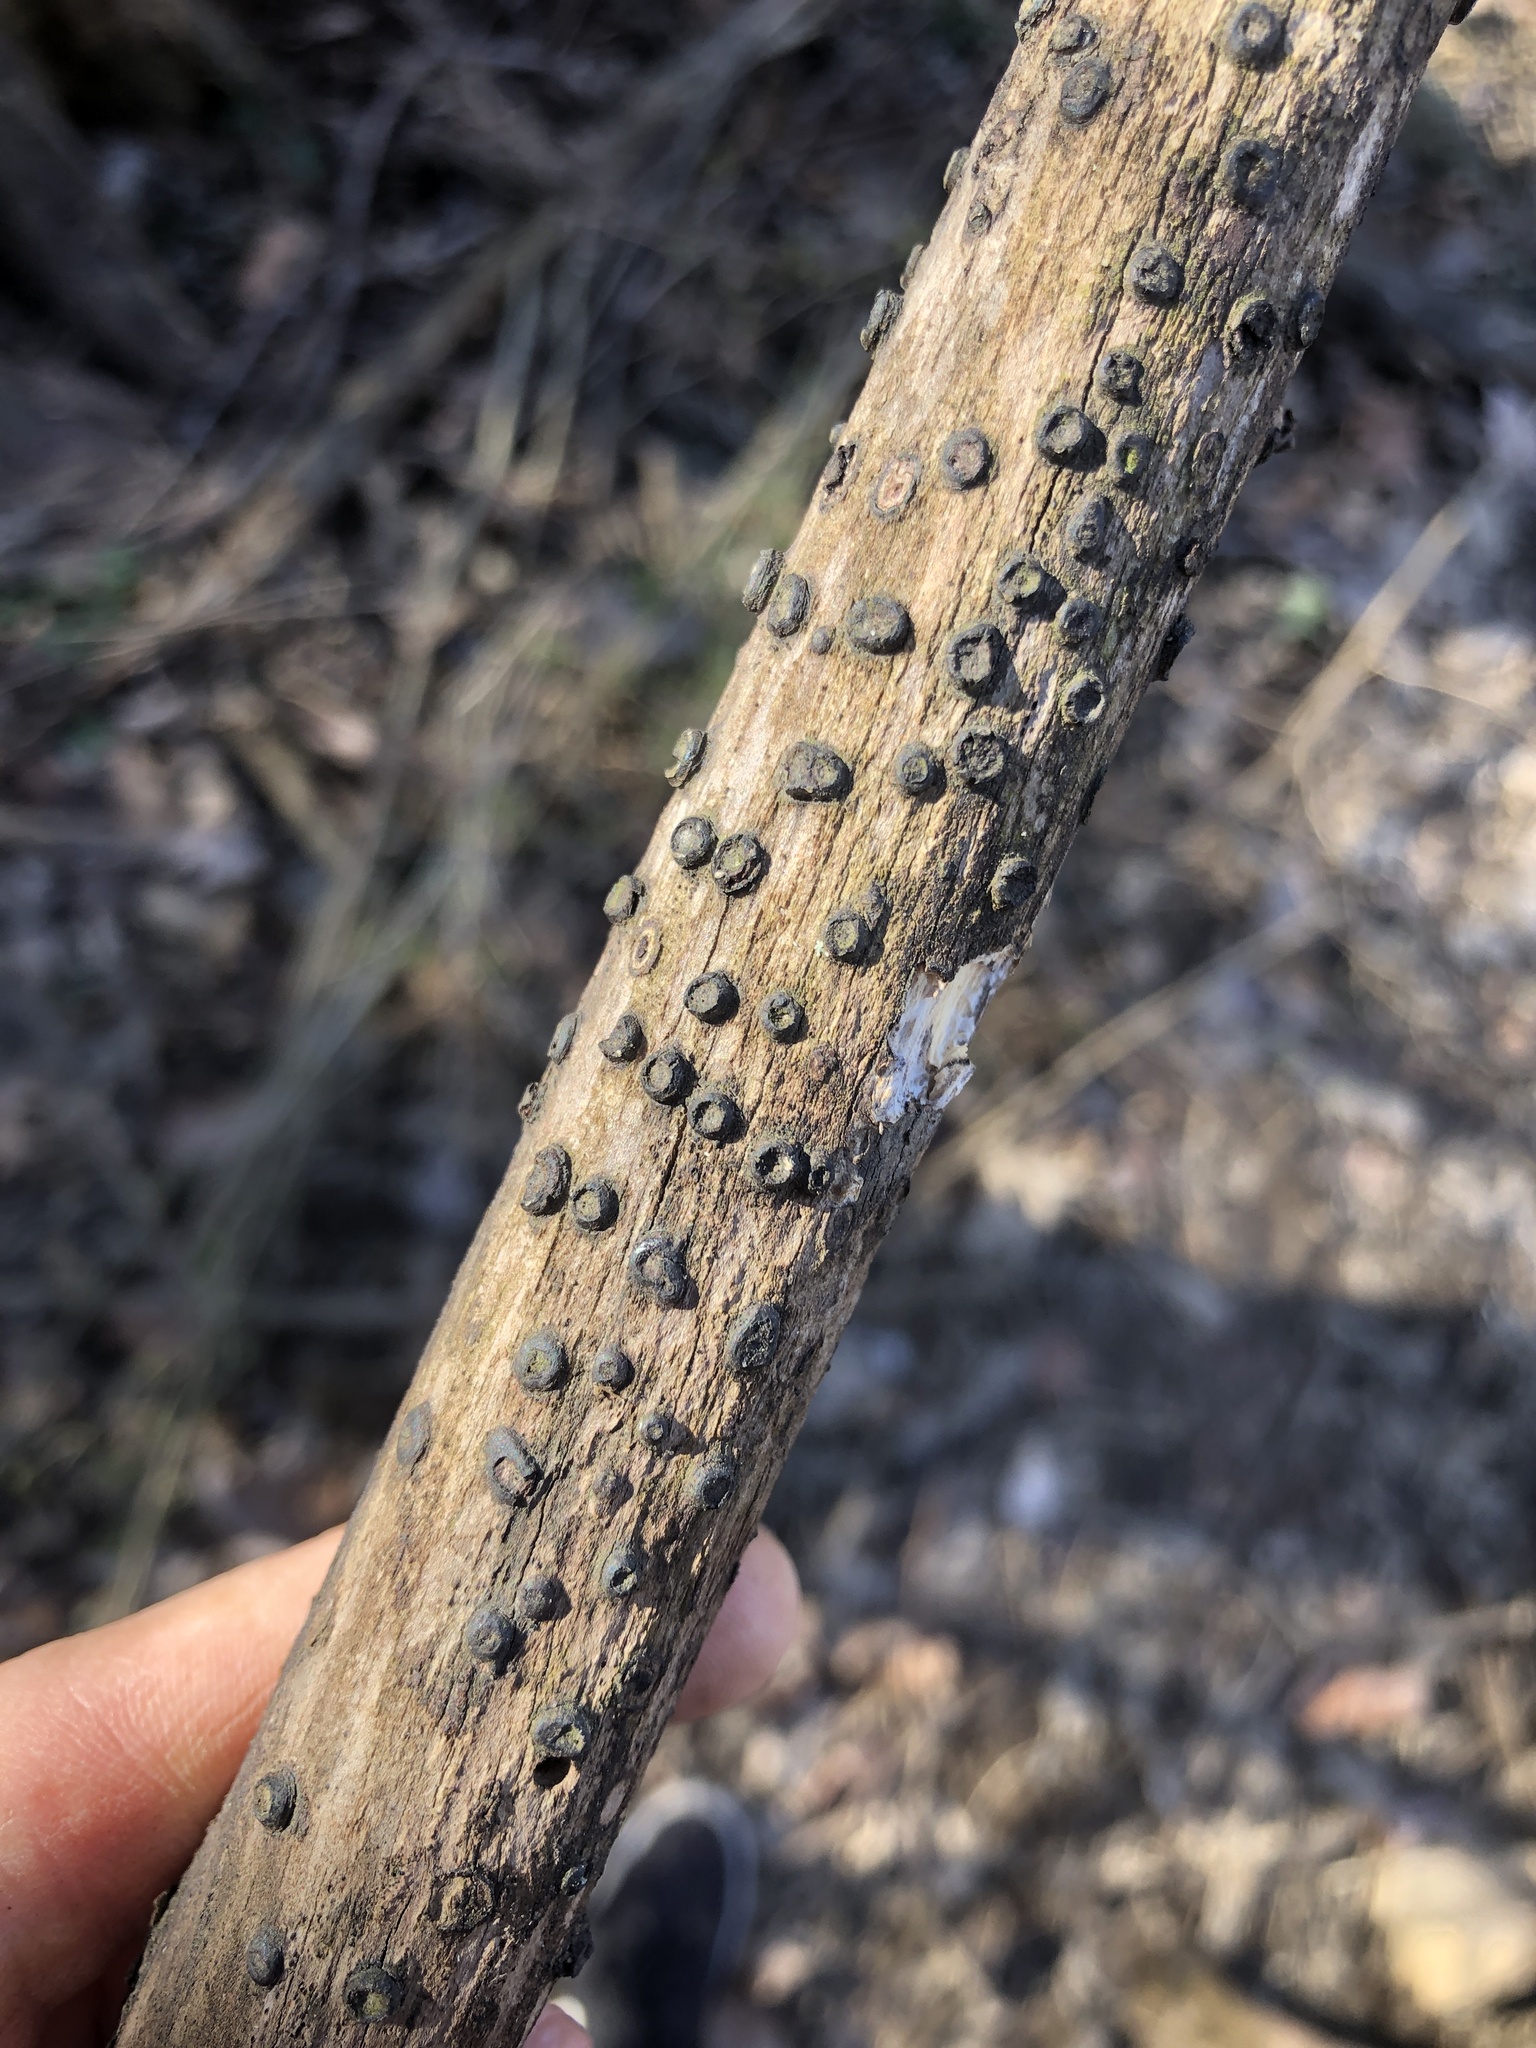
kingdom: Fungi
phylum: Ascomycota
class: Sordariomycetes
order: Xylariales
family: Diatrypaceae
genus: Diatrype
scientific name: Diatrype virescens
